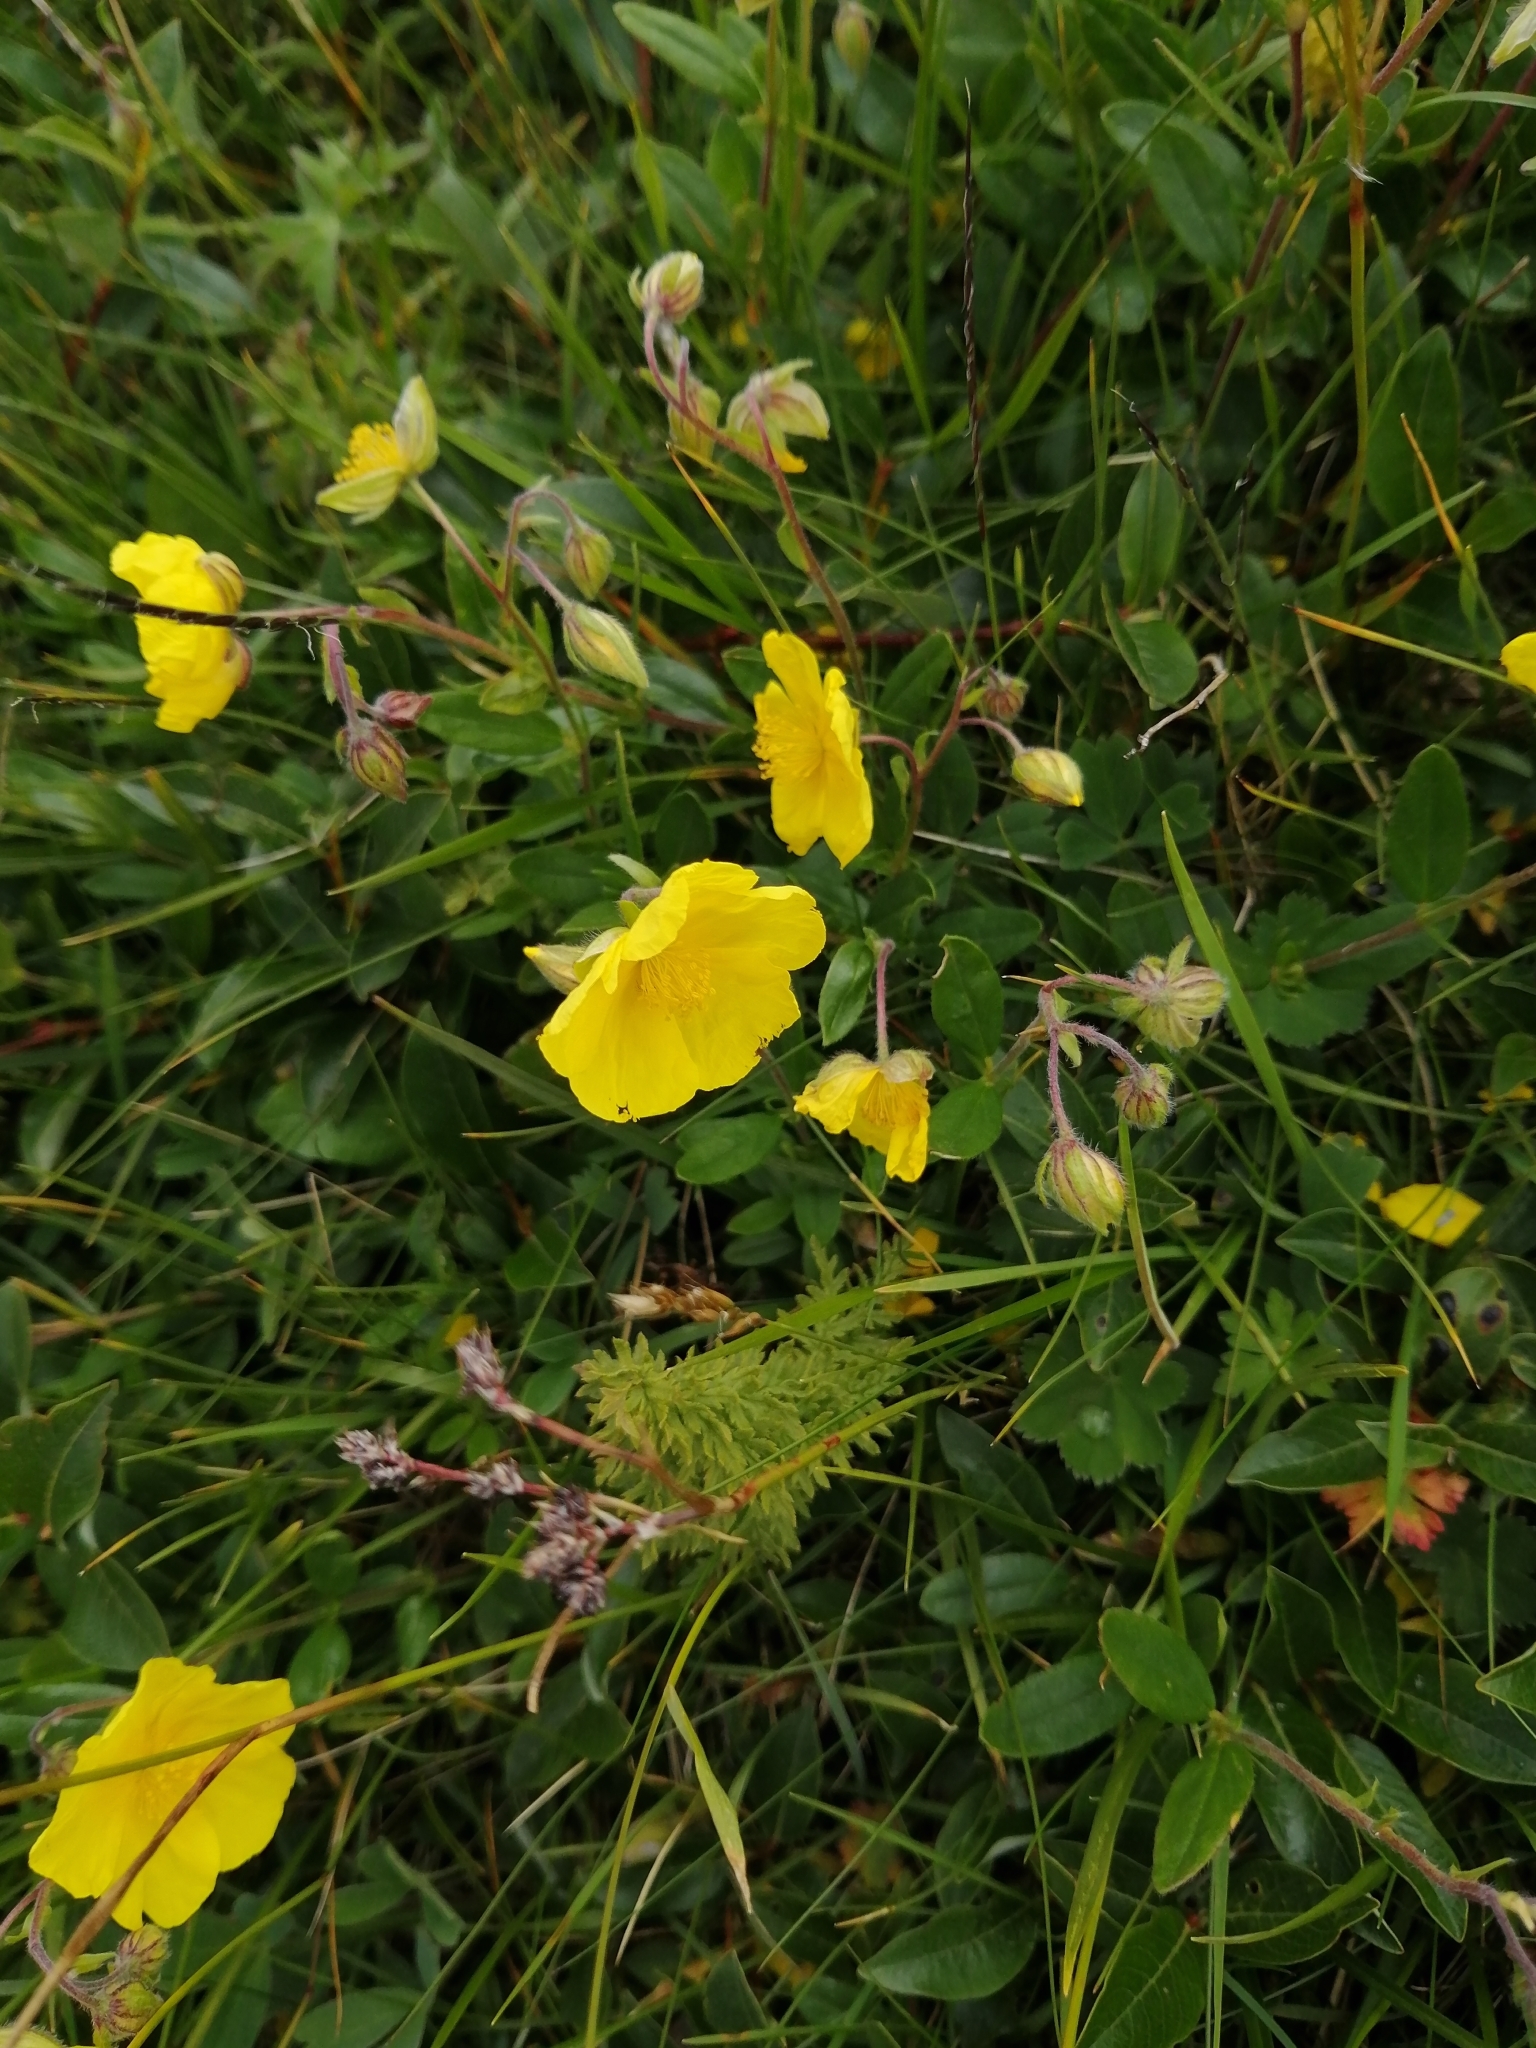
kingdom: Plantae
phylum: Tracheophyta
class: Magnoliopsida
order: Malvales
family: Cistaceae
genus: Helianthemum
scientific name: Helianthemum nummularium
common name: Common rock-rose
